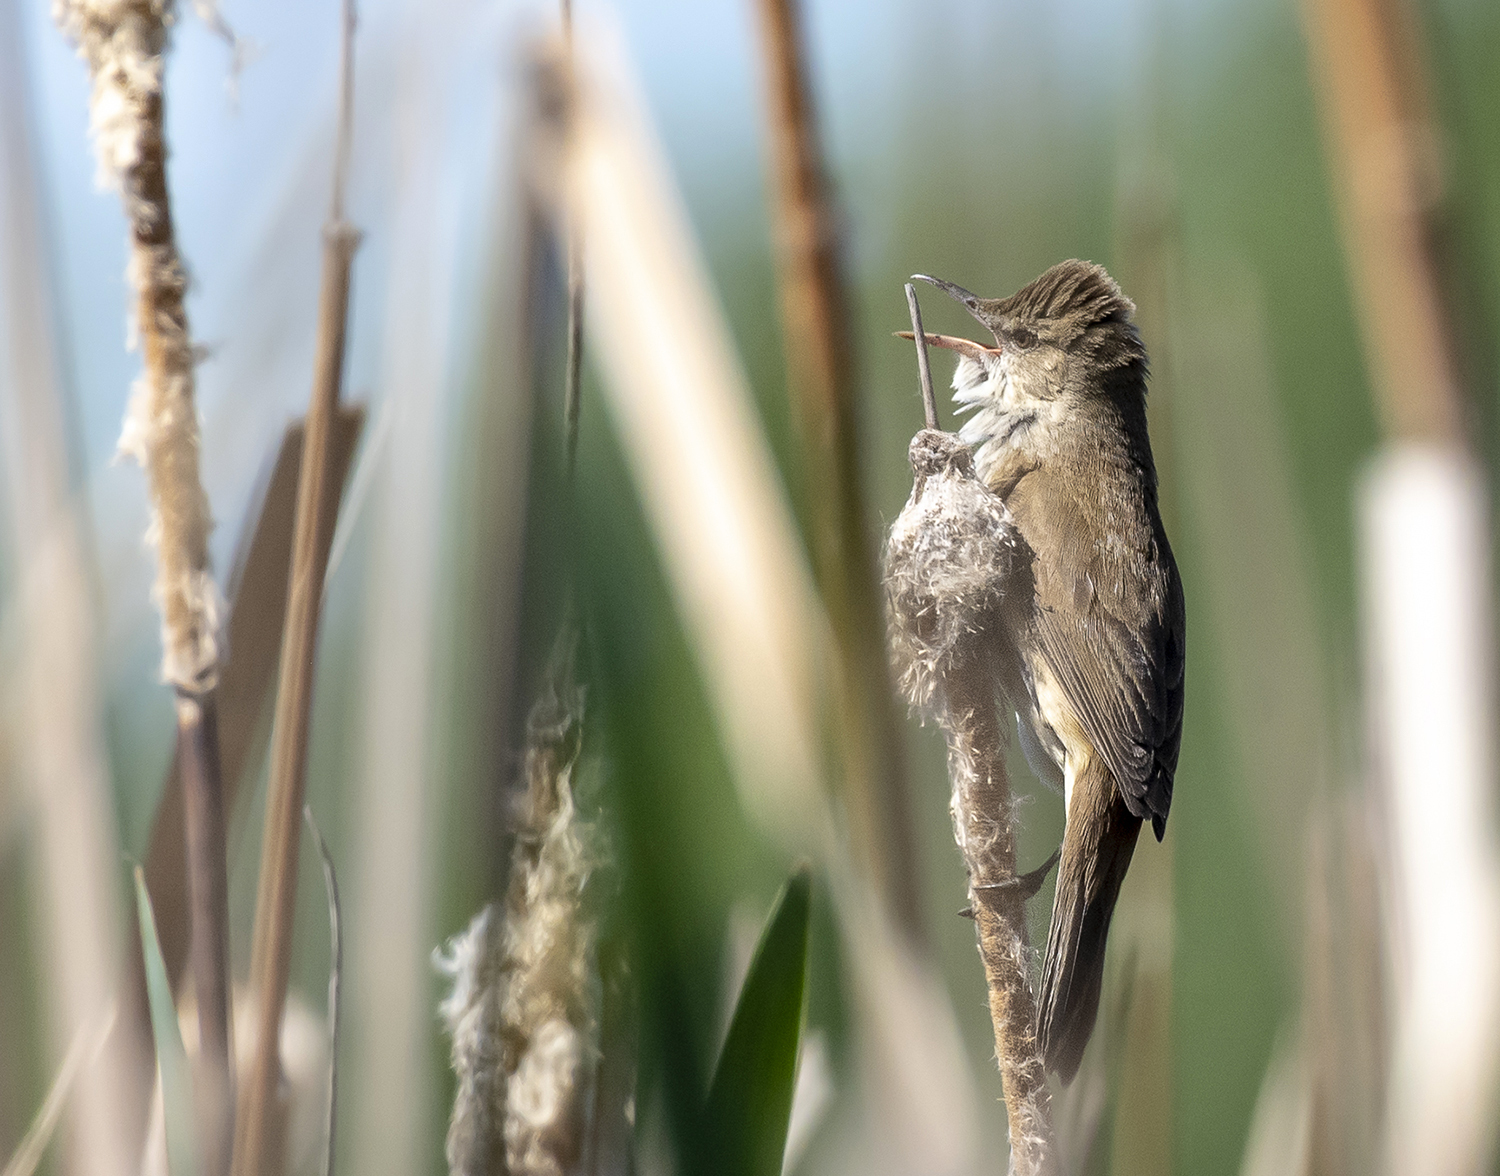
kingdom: Animalia
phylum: Chordata
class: Aves
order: Passeriformes
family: Acrocephalidae
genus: Acrocephalus
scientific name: Acrocephalus stentoreus
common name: Clamorous reed warbler
